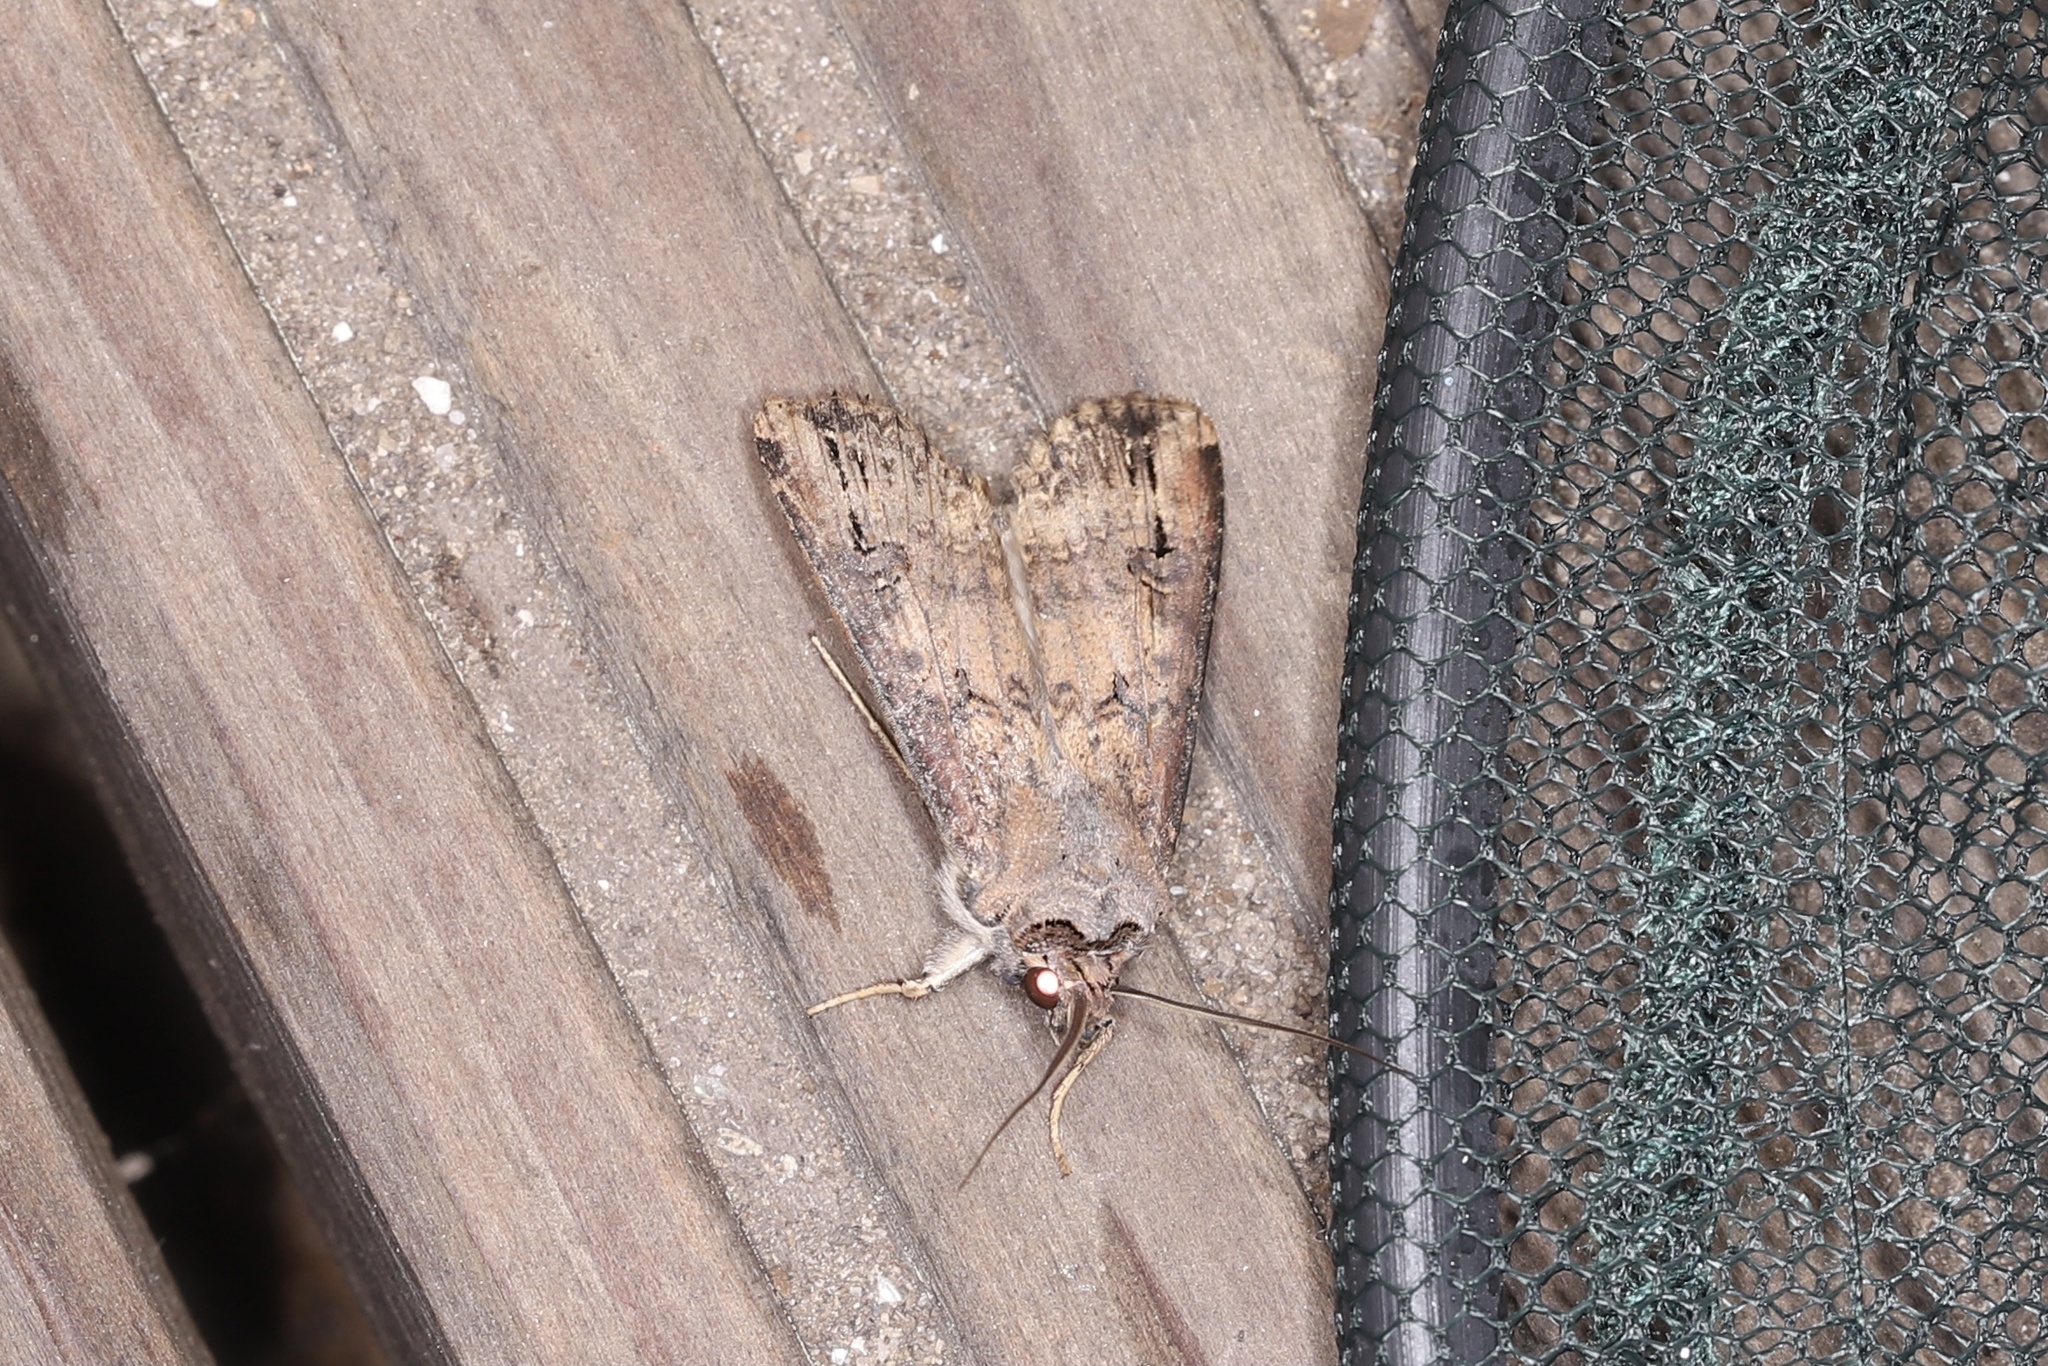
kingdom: Animalia
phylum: Arthropoda
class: Insecta
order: Lepidoptera
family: Noctuidae
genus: Agrotis
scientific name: Agrotis ipsilon
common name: Dark sword-grass
